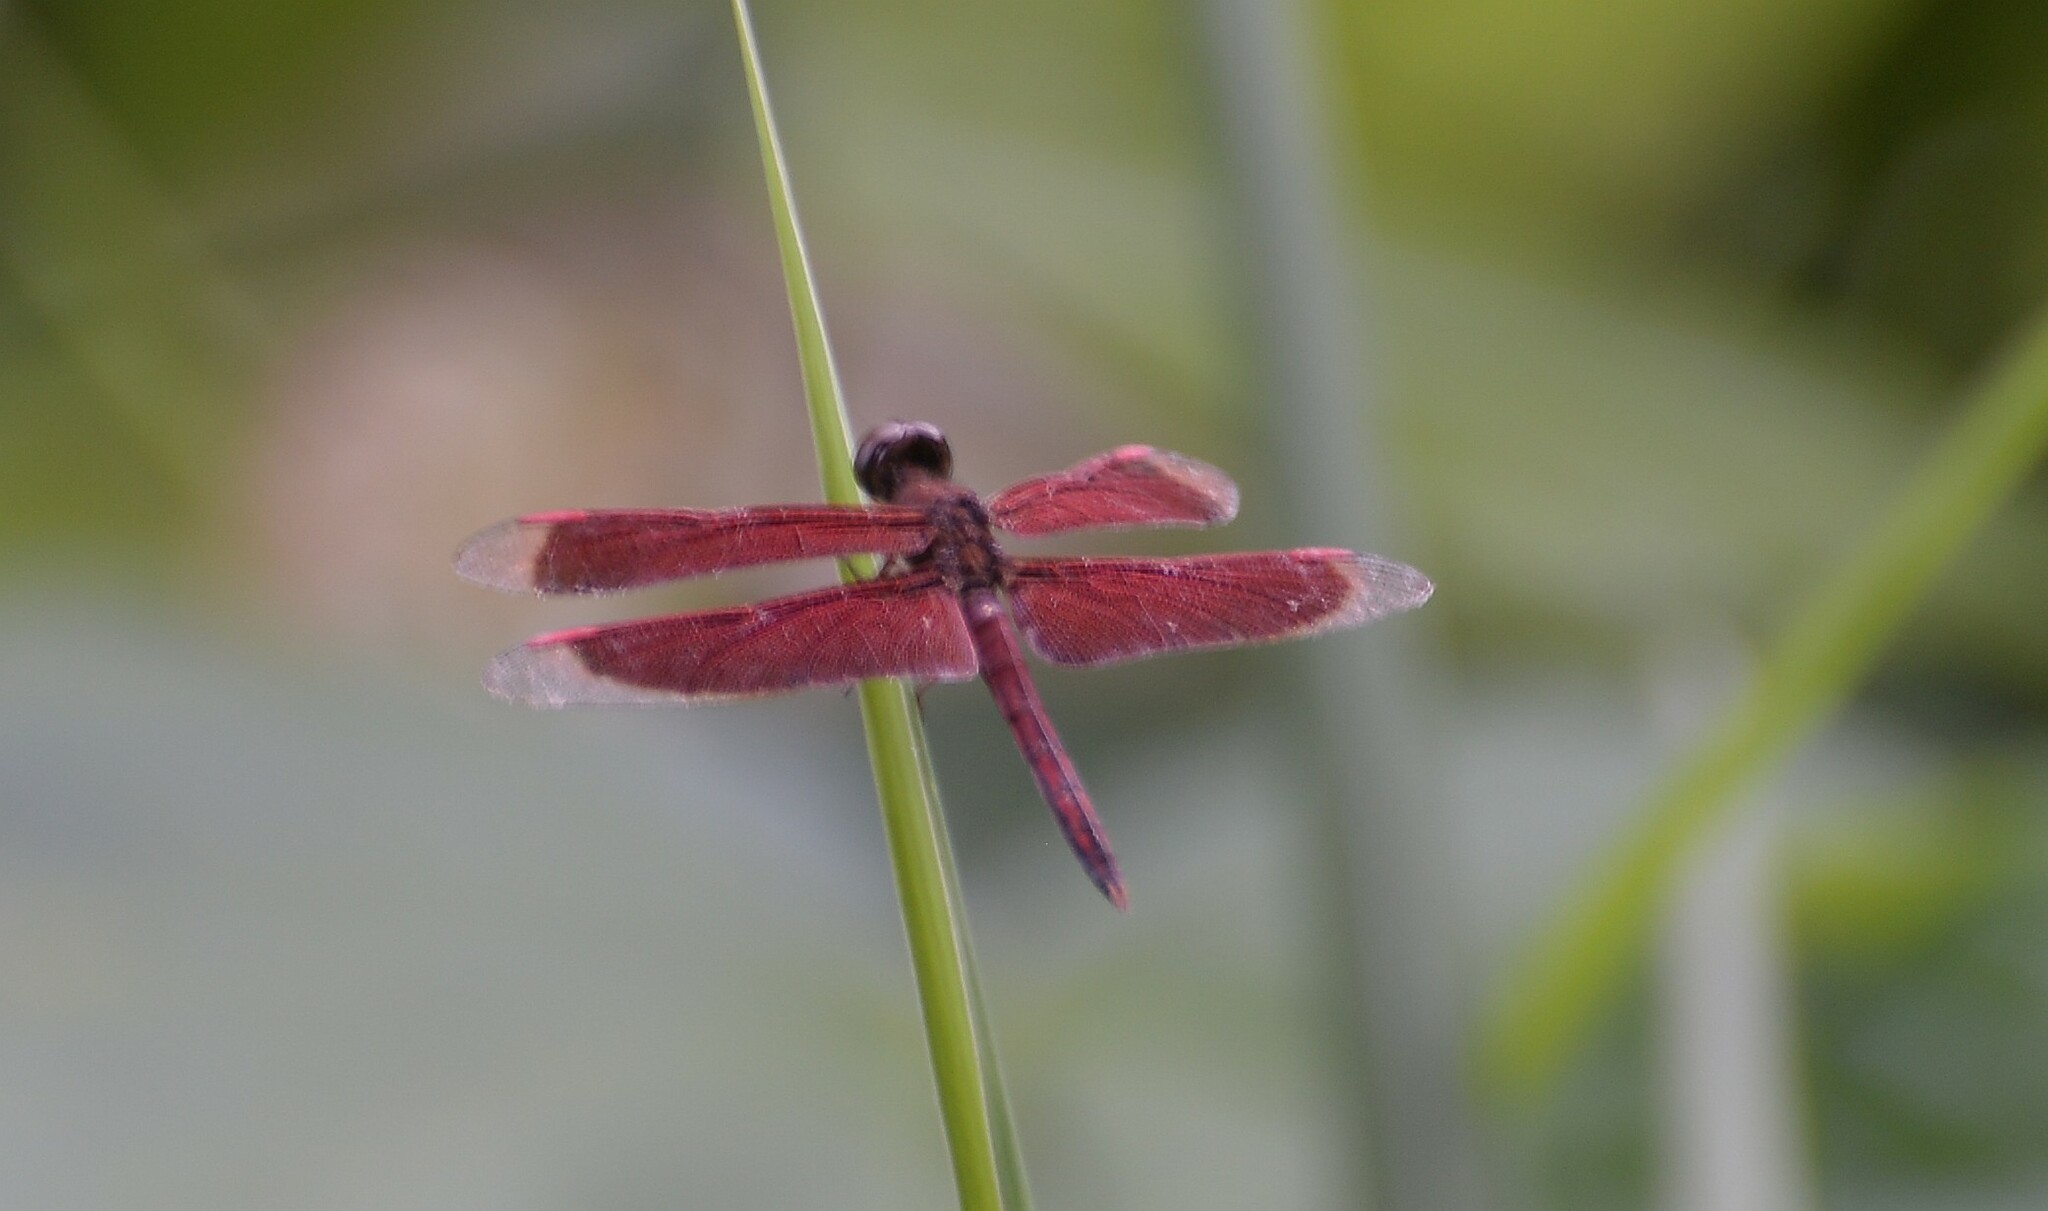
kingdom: Animalia
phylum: Arthropoda
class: Insecta
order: Odonata
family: Libellulidae
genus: Neurothemis
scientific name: Neurothemis stigmatizans
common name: Painted grasshawk
